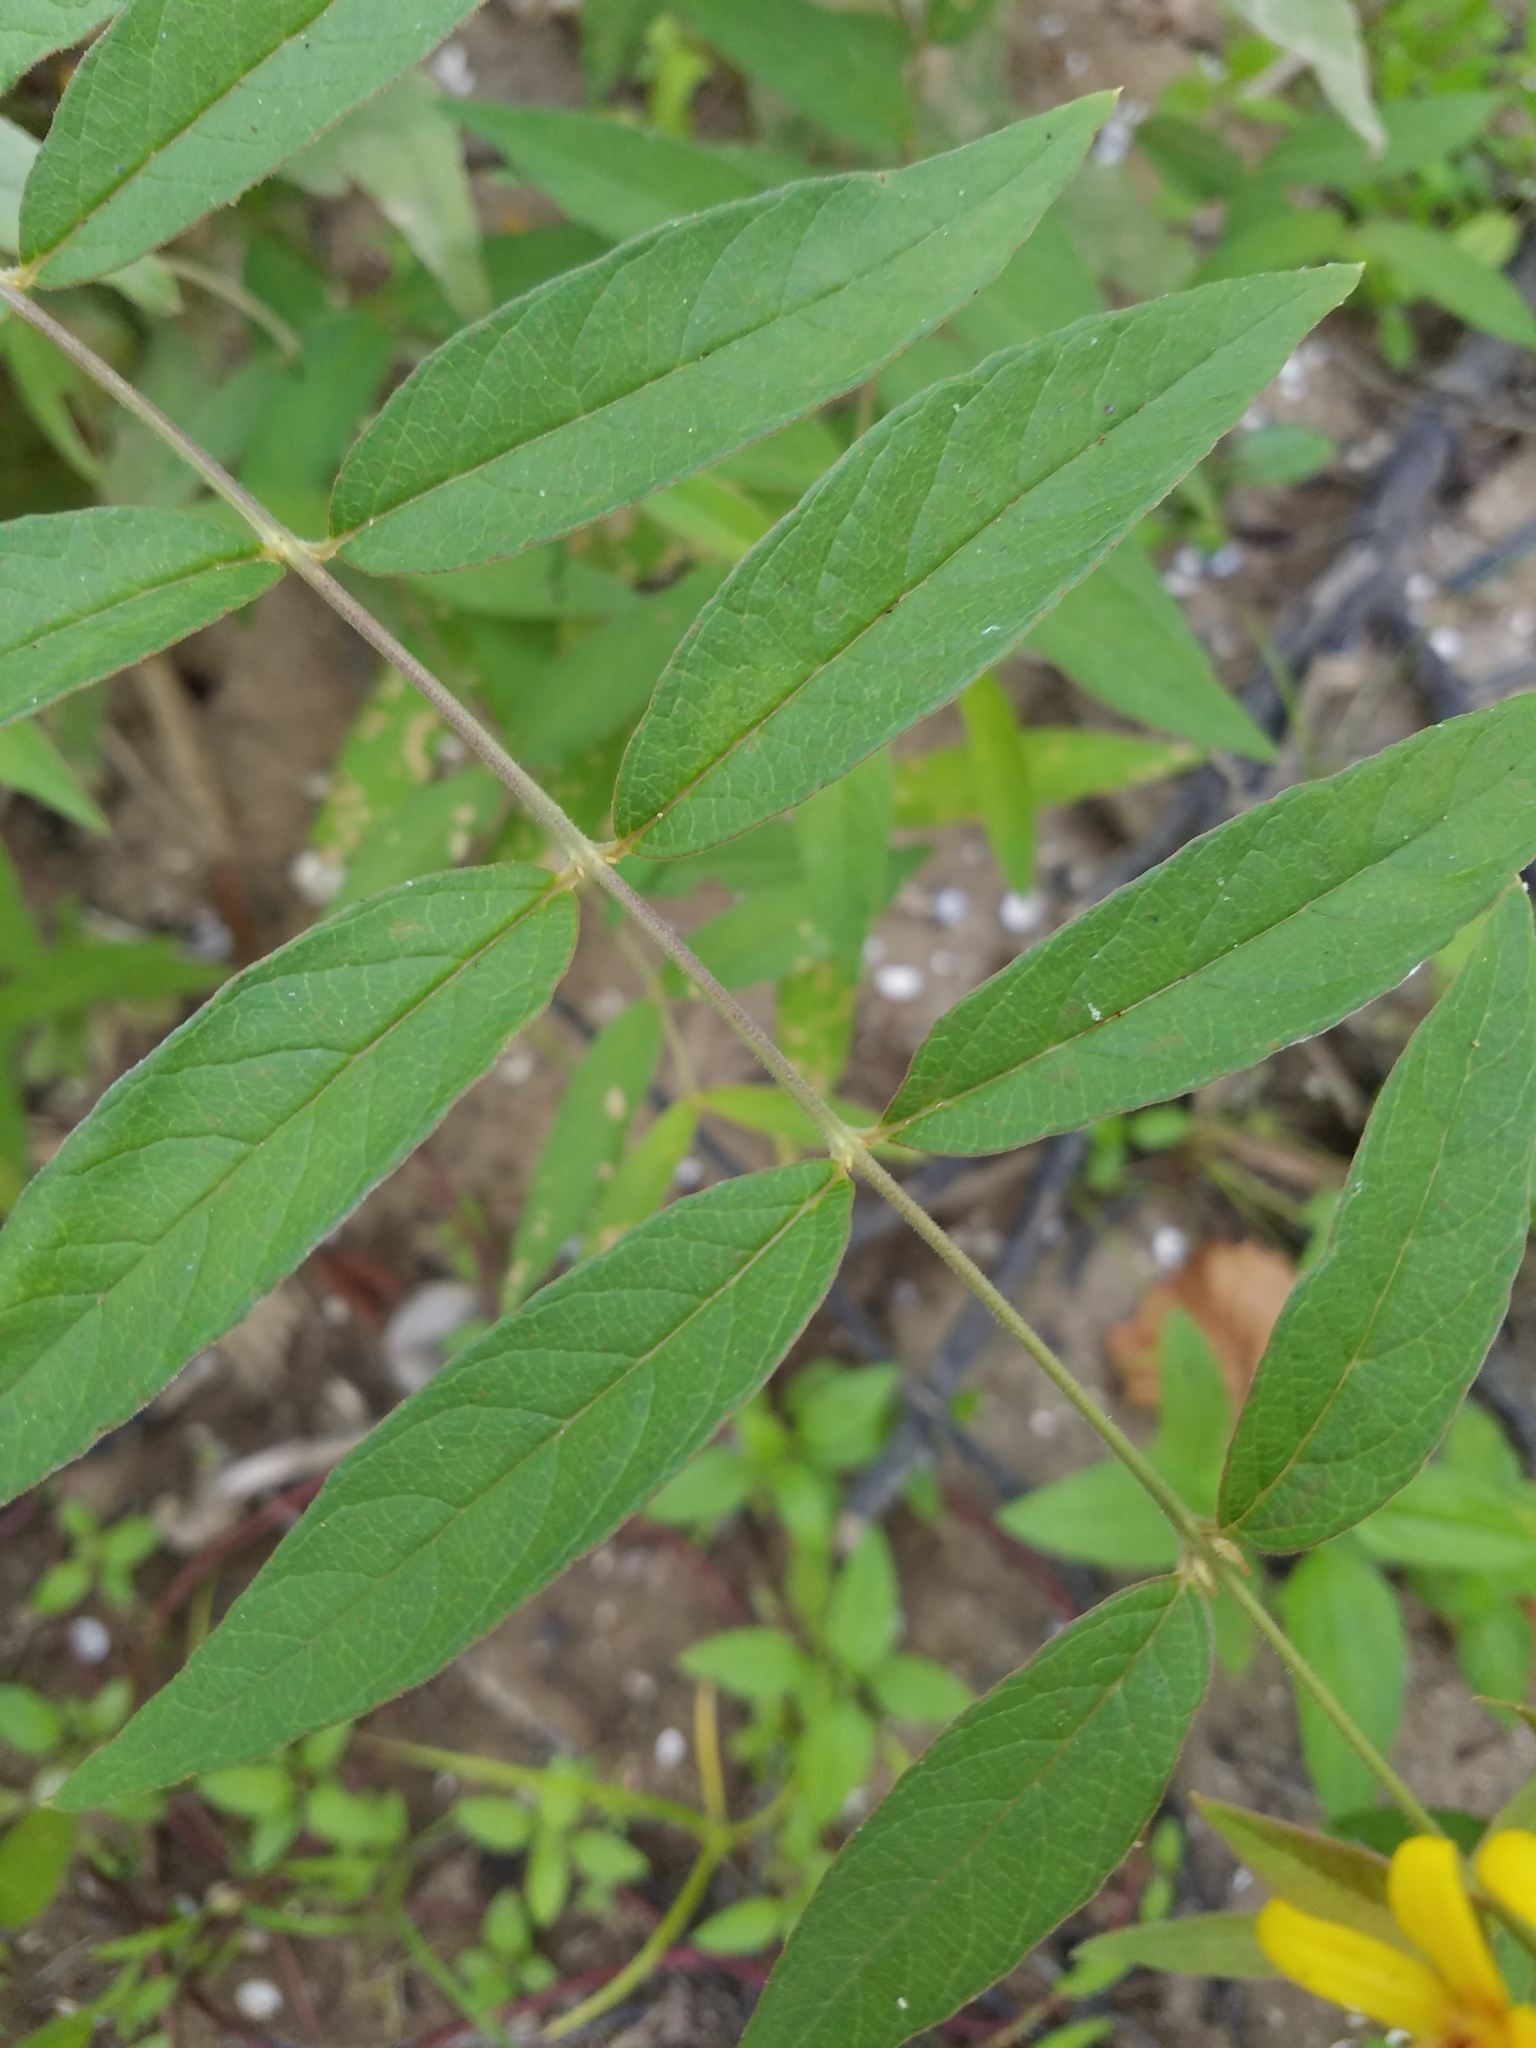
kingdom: Plantae
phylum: Tracheophyta
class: Magnoliopsida
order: Ericales
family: Primulaceae
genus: Lysimachia
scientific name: Lysimachia vulgaris
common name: Yellow loosestrife
